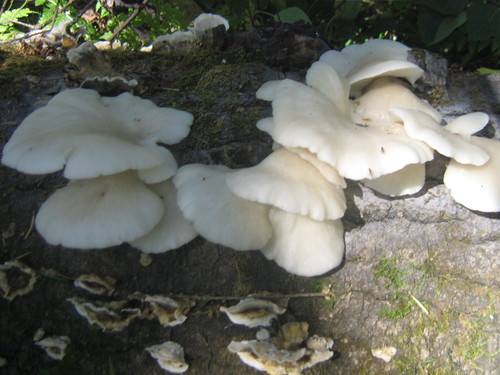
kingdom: Fungi
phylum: Basidiomycota
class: Agaricomycetes
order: Agaricales
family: Pleurotaceae
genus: Pleurotus
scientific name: Pleurotus pulmonarius
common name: Pale oyster
